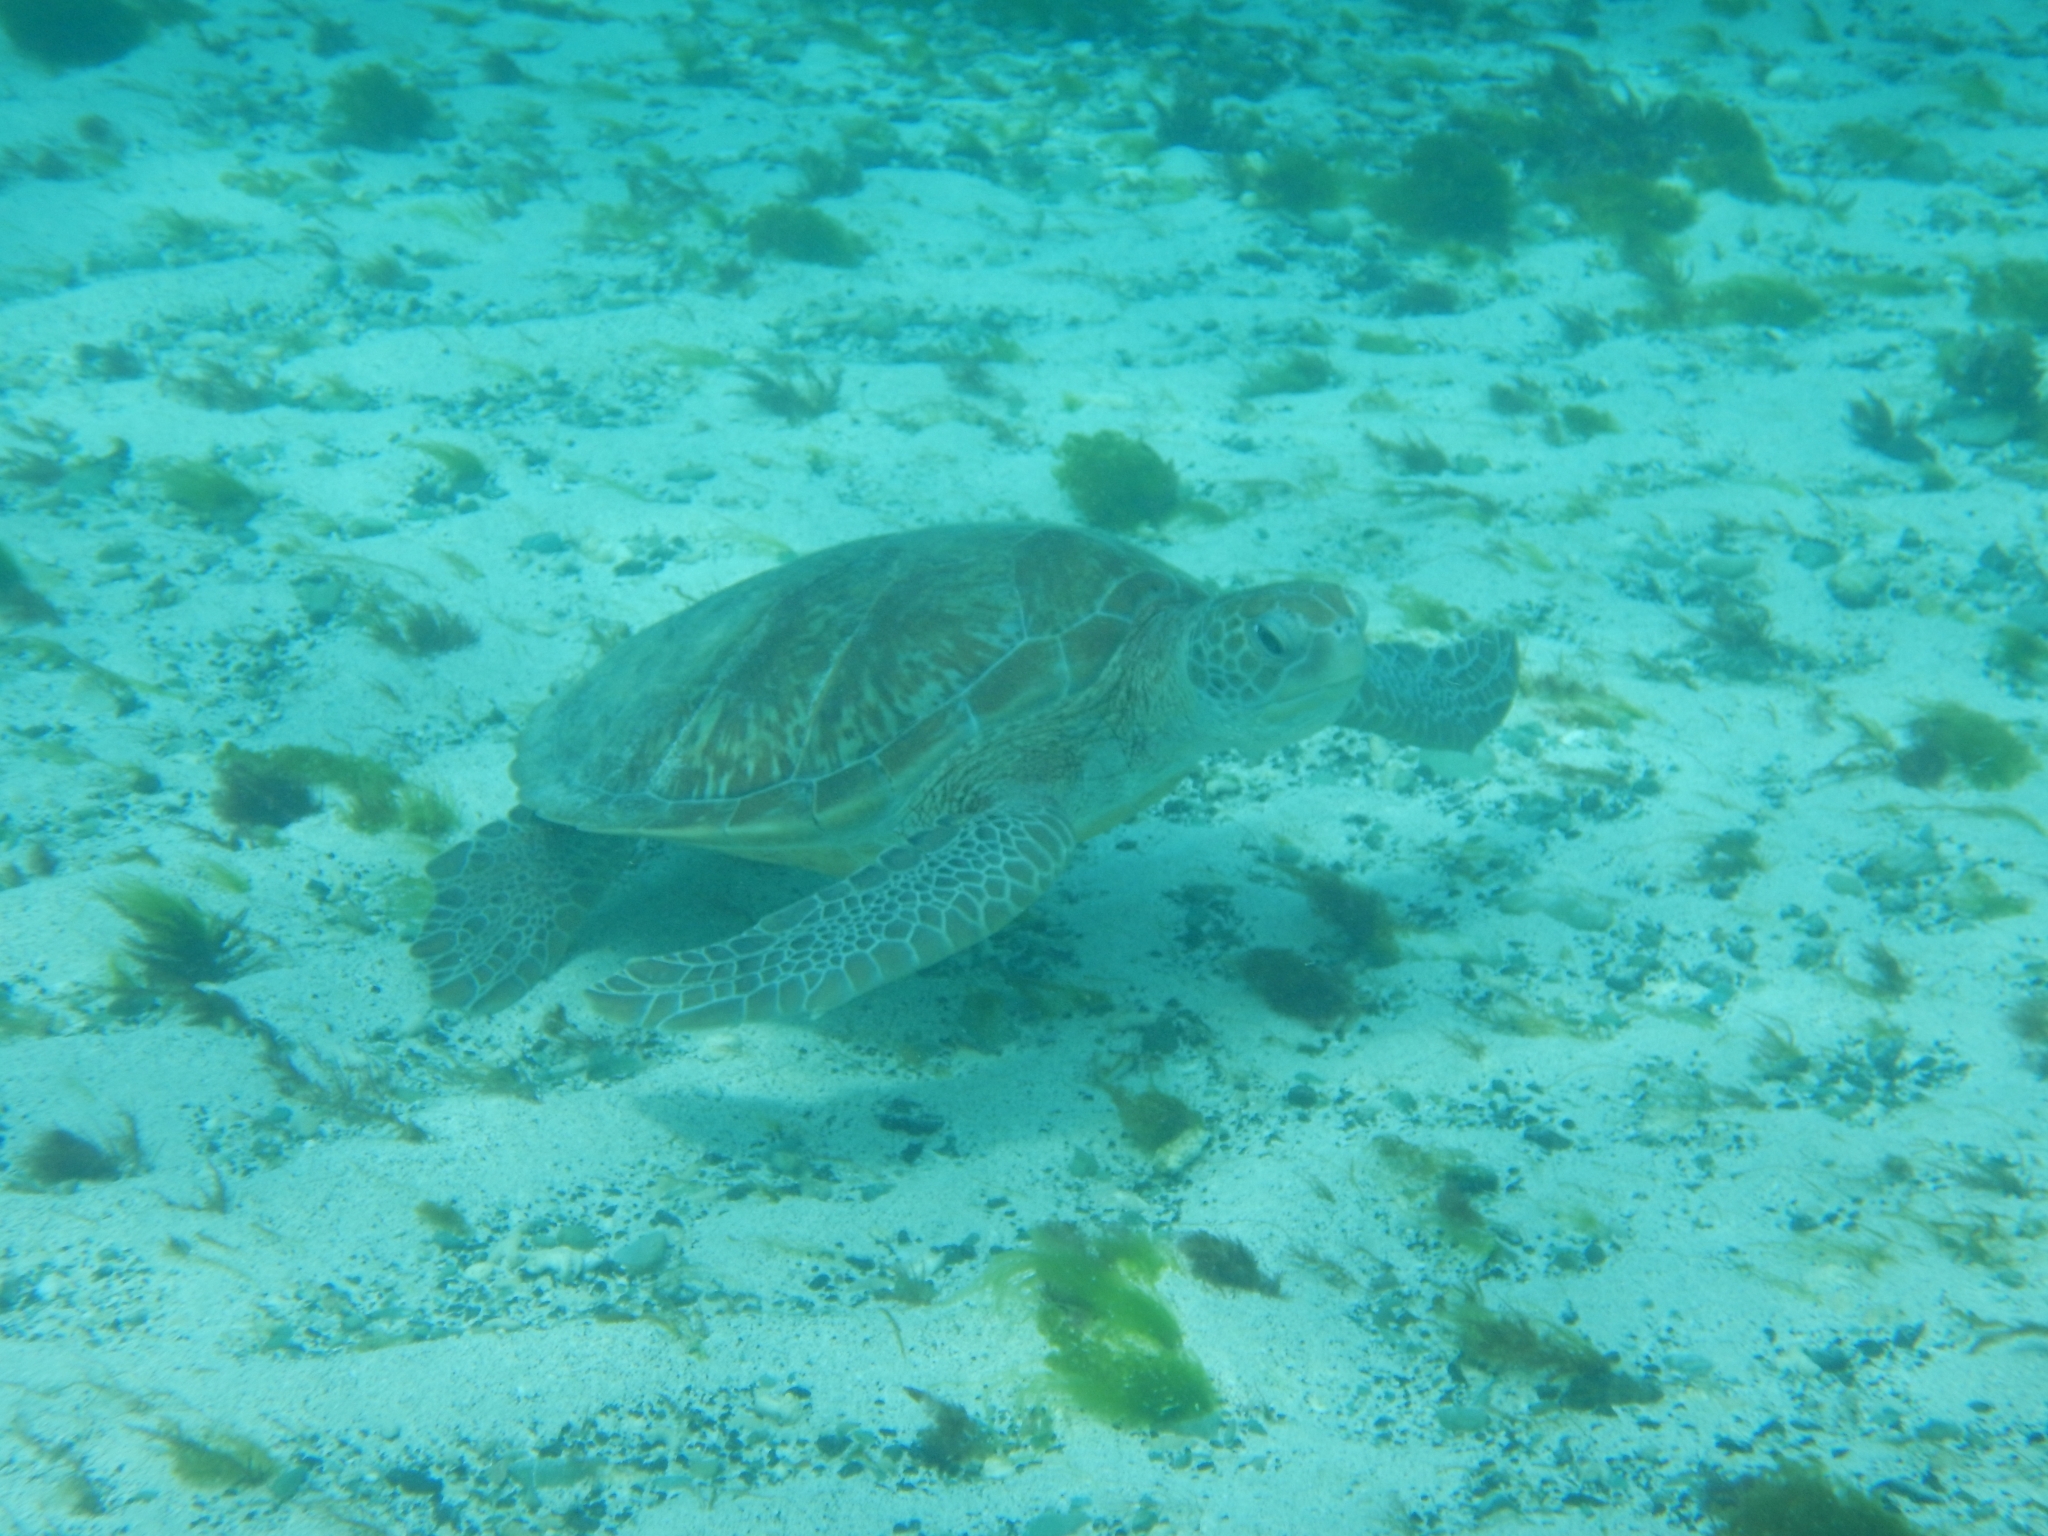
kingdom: Animalia
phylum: Chordata
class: Testudines
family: Cheloniidae
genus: Chelonia
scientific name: Chelonia mydas
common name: Green turtle
